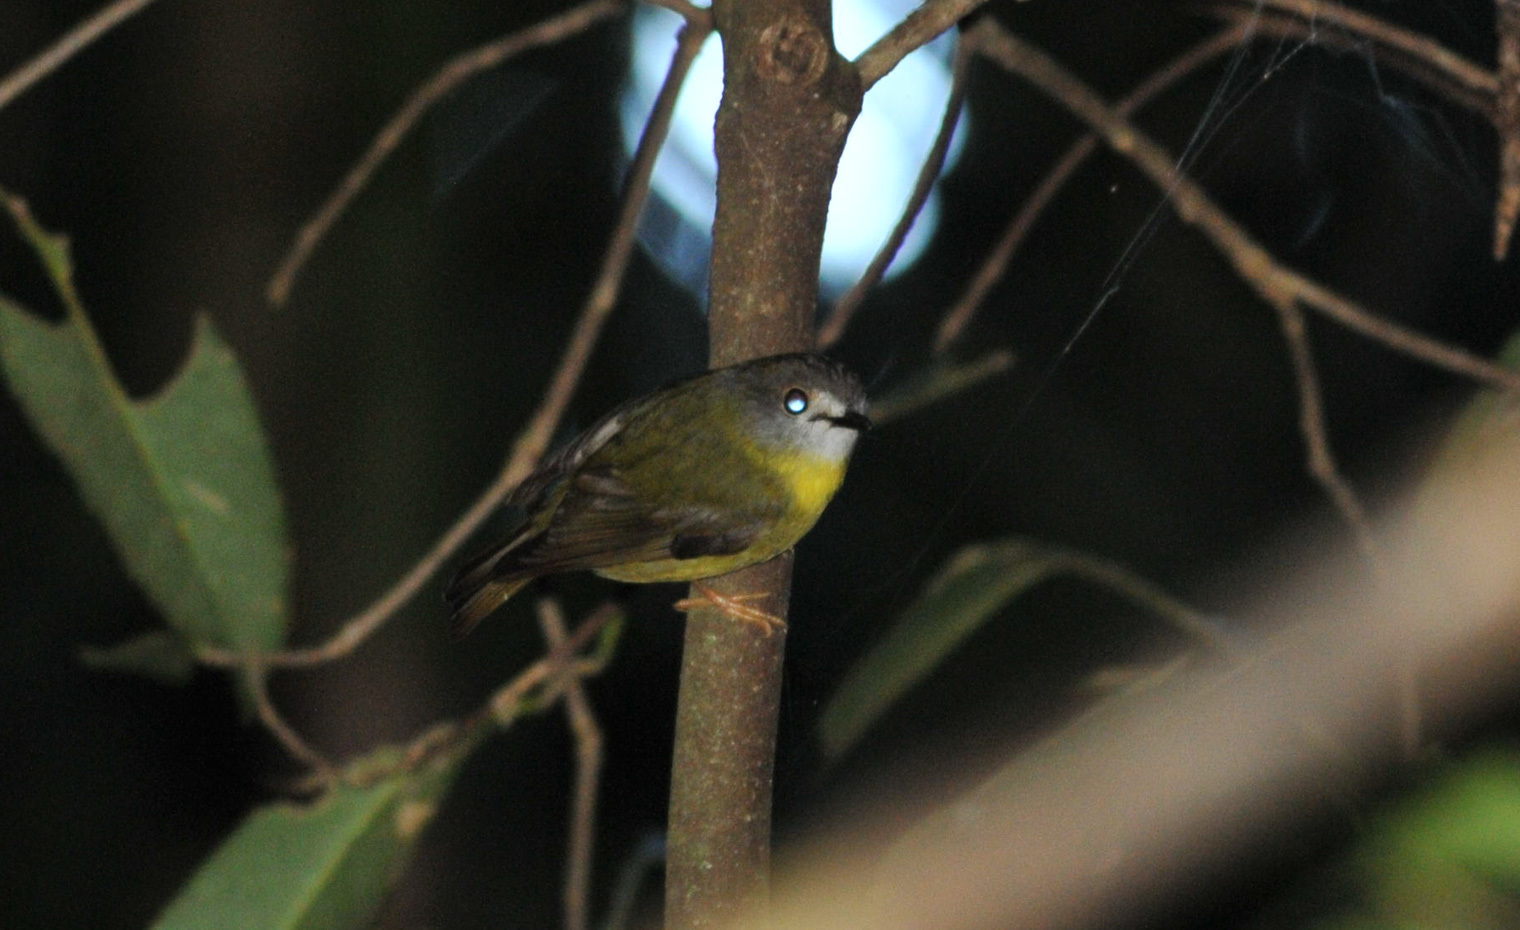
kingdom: Animalia
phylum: Chordata
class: Aves
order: Passeriformes
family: Petroicidae
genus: Eopsaltria
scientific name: Eopsaltria
